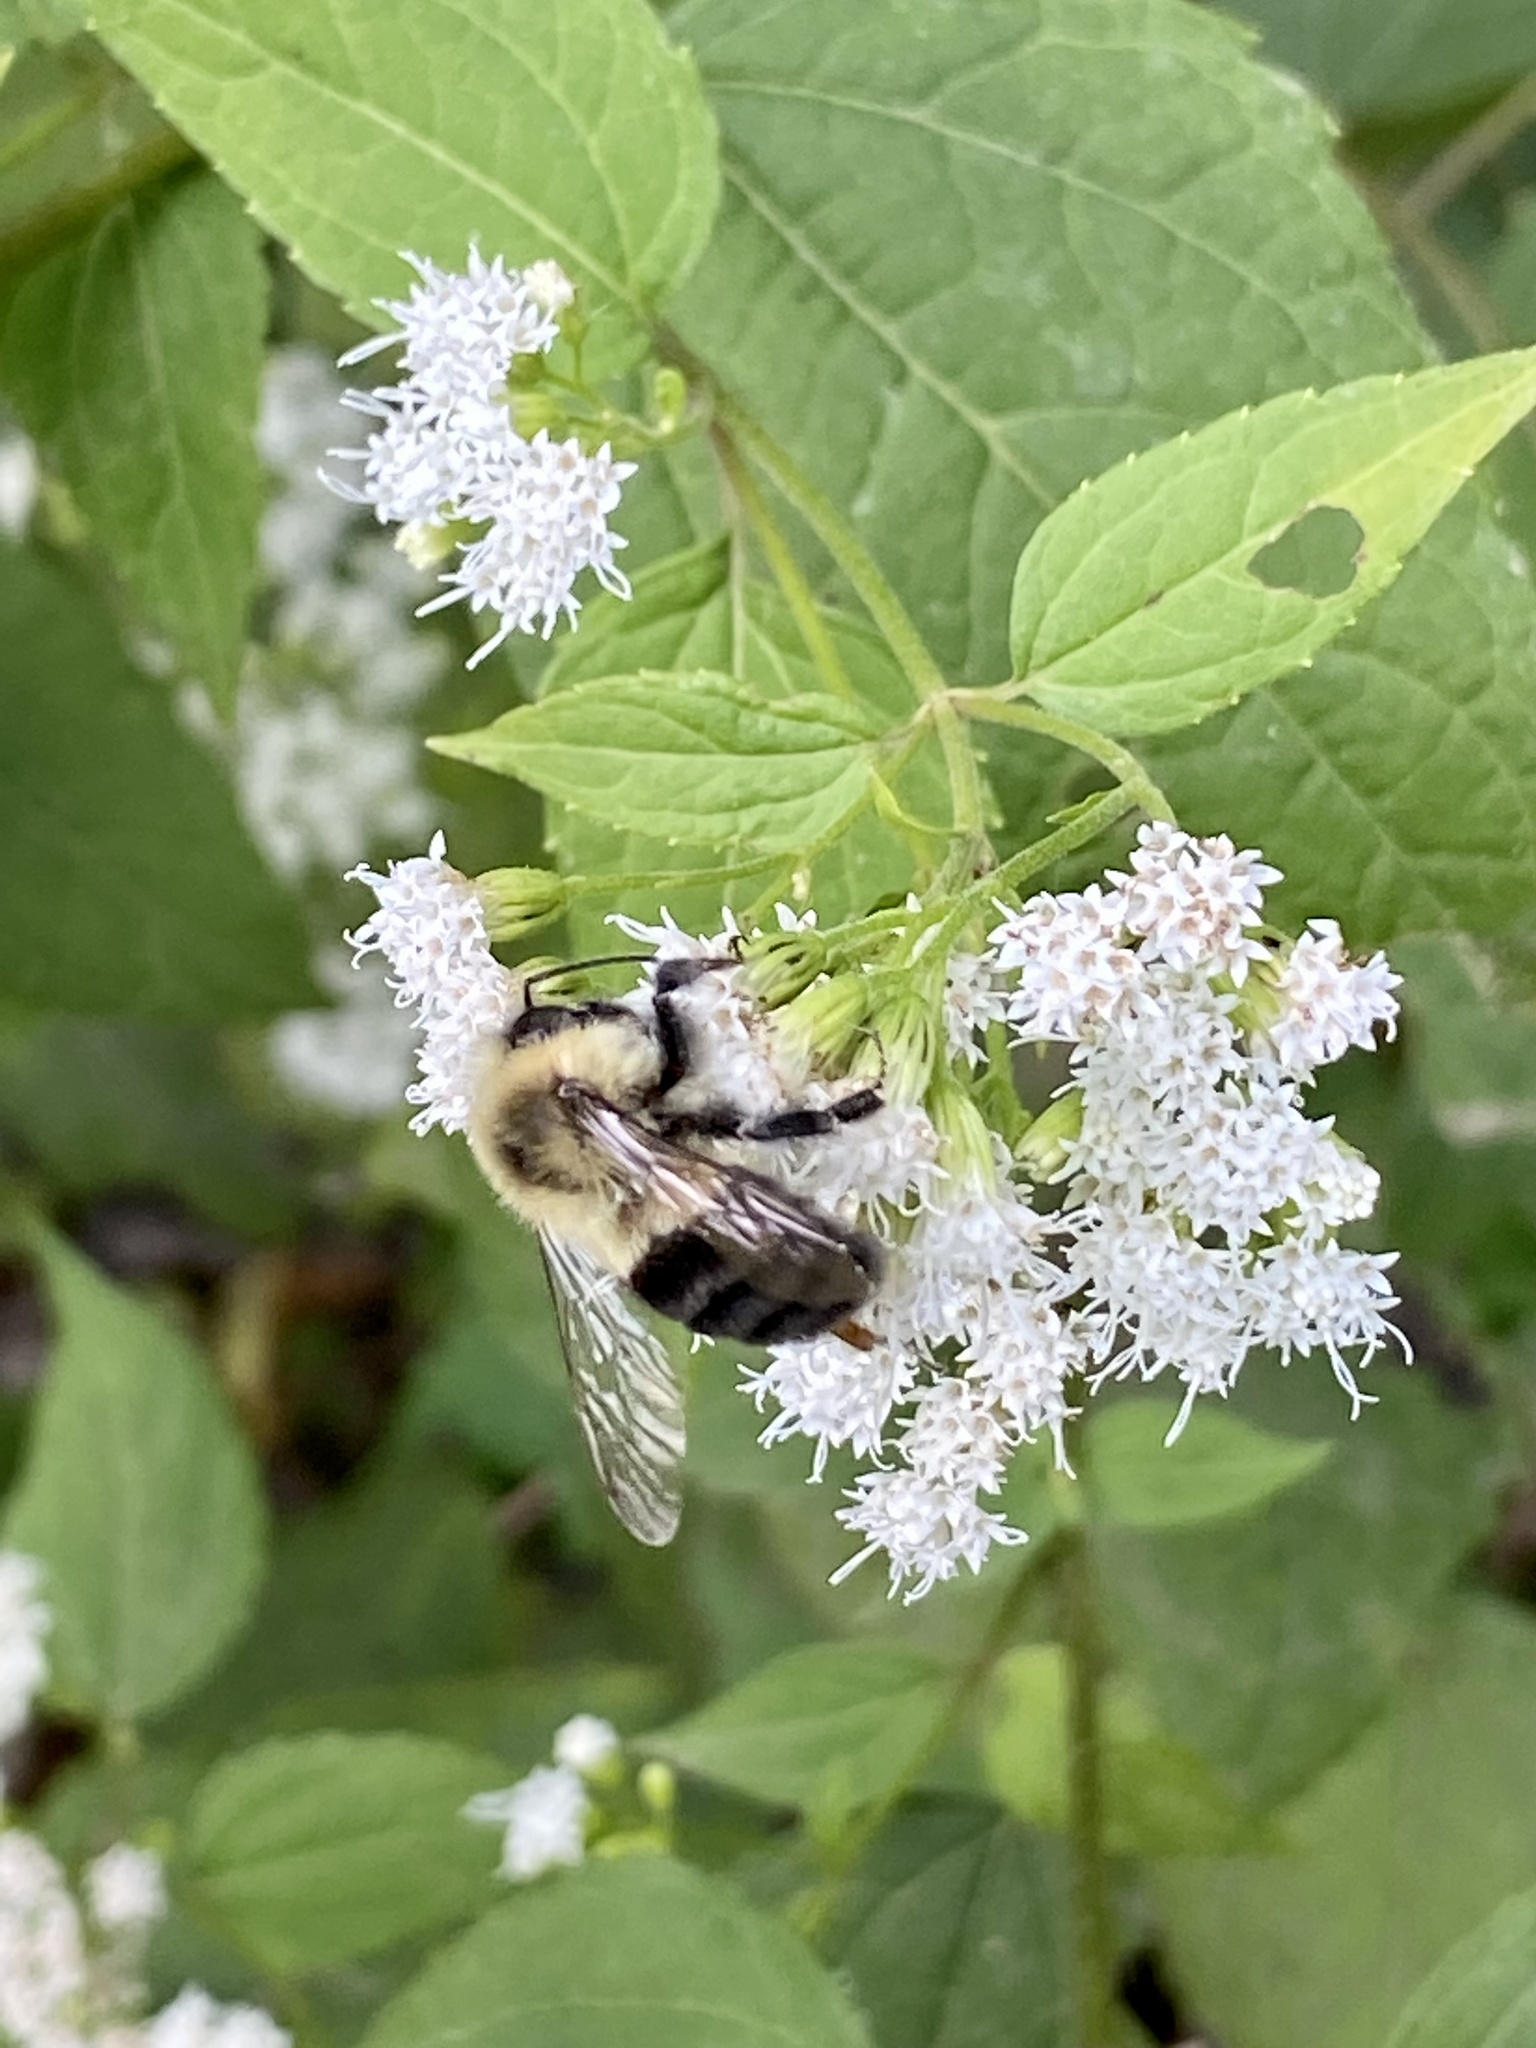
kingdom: Animalia
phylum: Arthropoda
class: Insecta
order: Hymenoptera
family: Apidae
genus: Bombus
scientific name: Bombus impatiens
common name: Common eastern bumble bee
